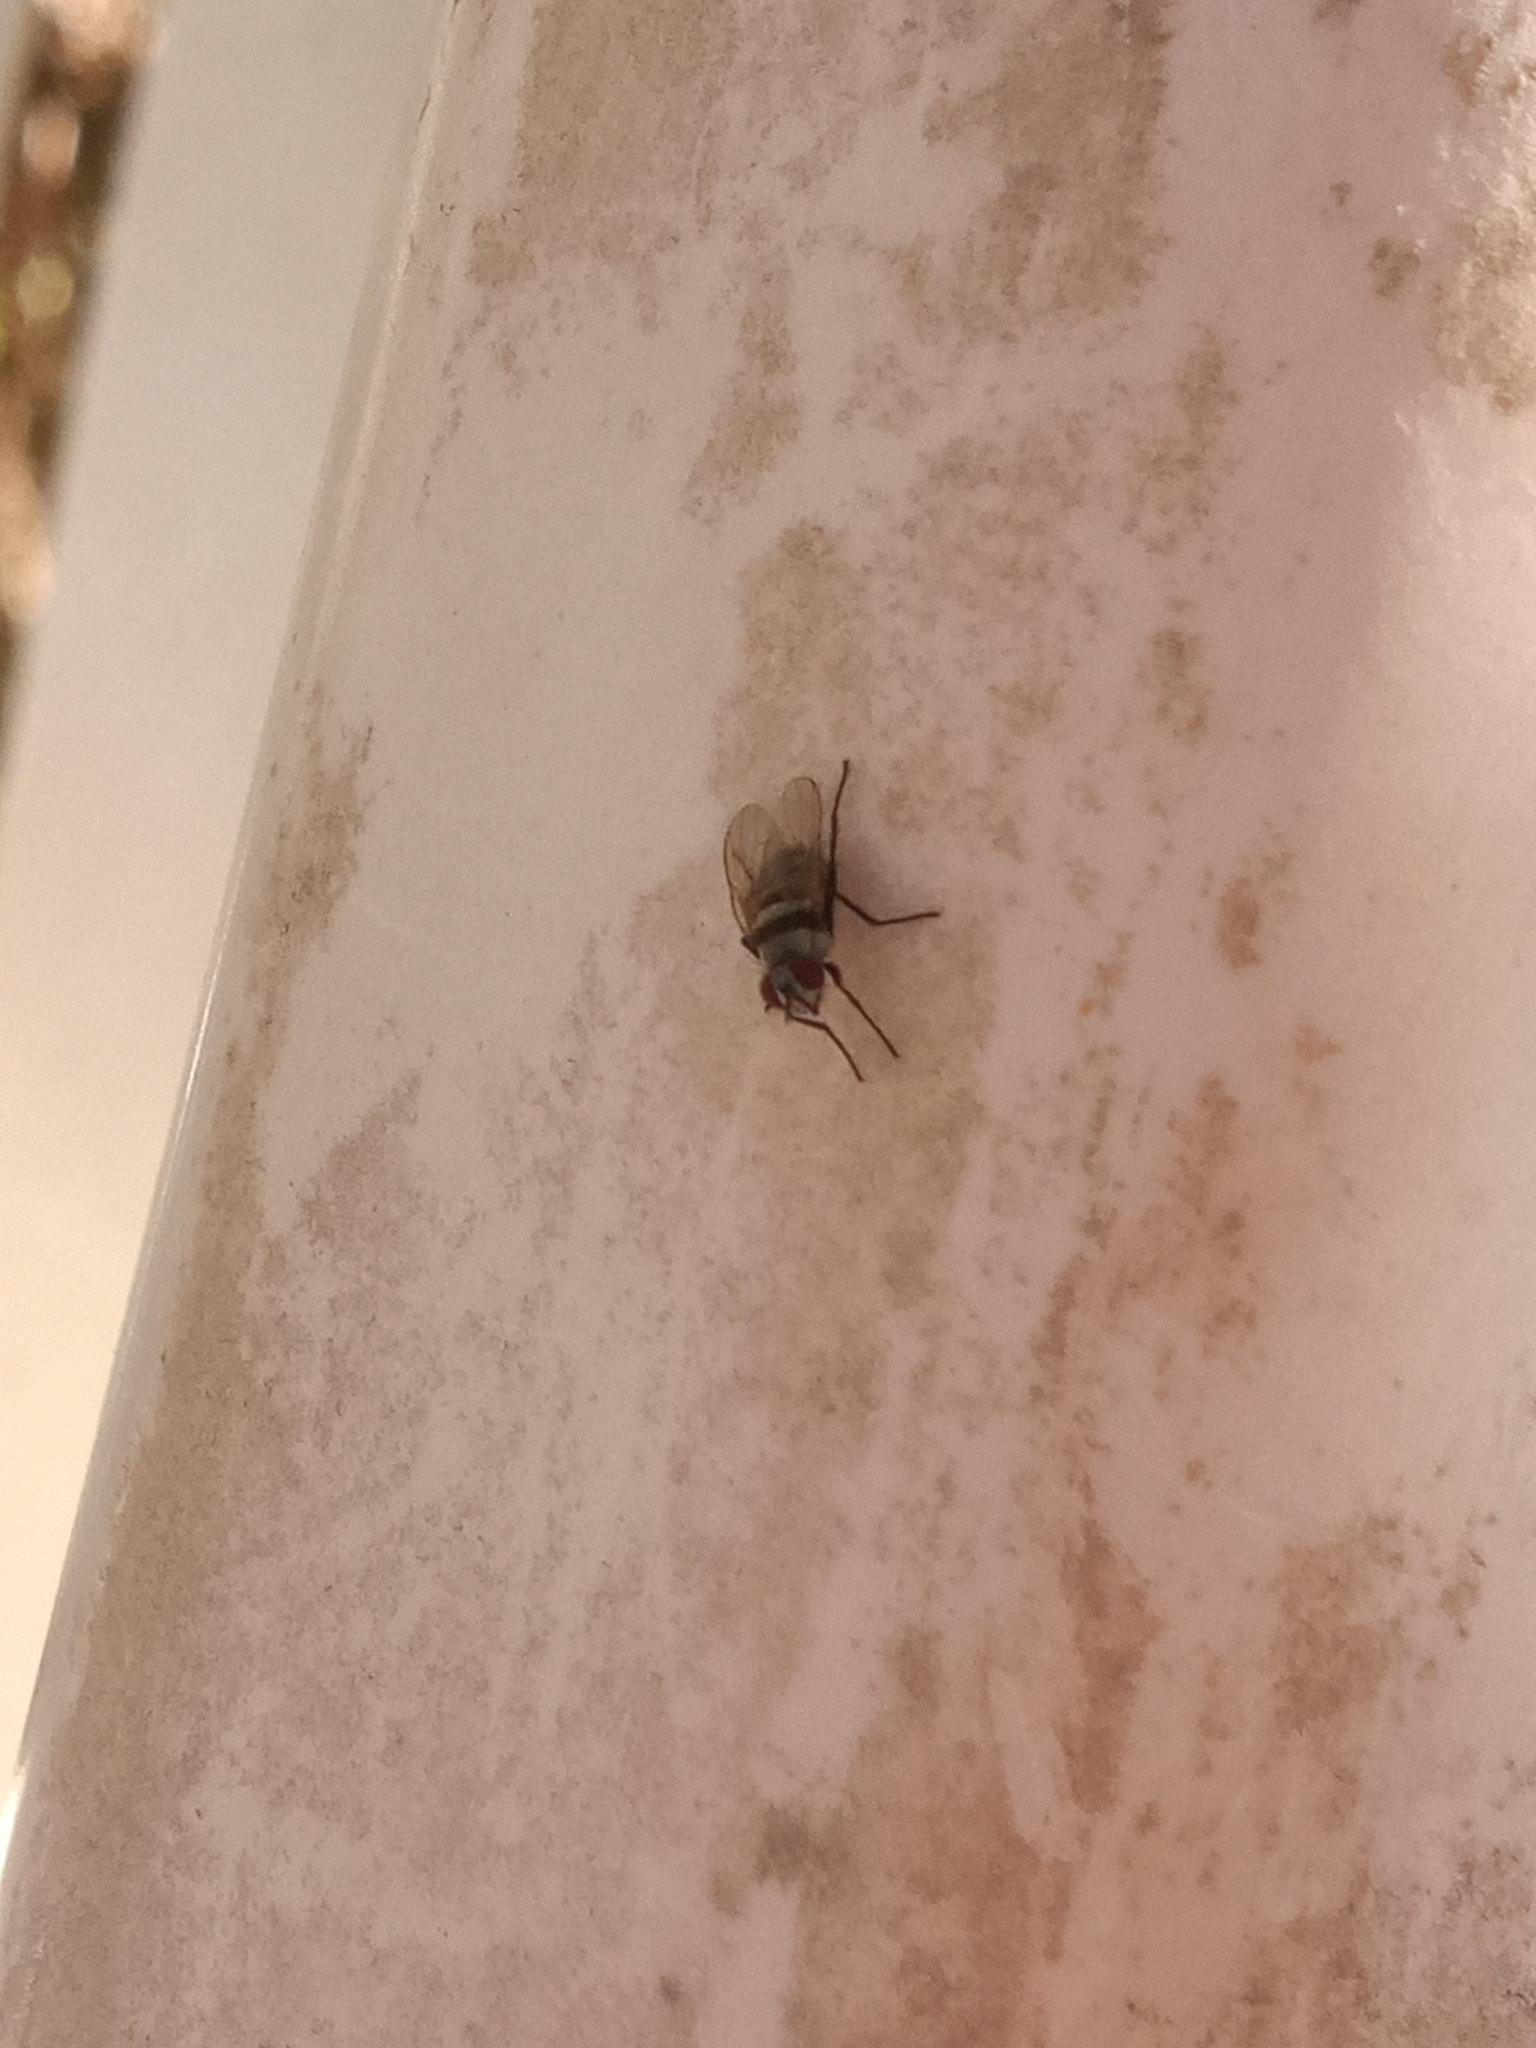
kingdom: Animalia
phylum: Arthropoda
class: Insecta
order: Diptera
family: Anthomyiidae
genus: Anthomyia
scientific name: Anthomyia illocata
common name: Fly
